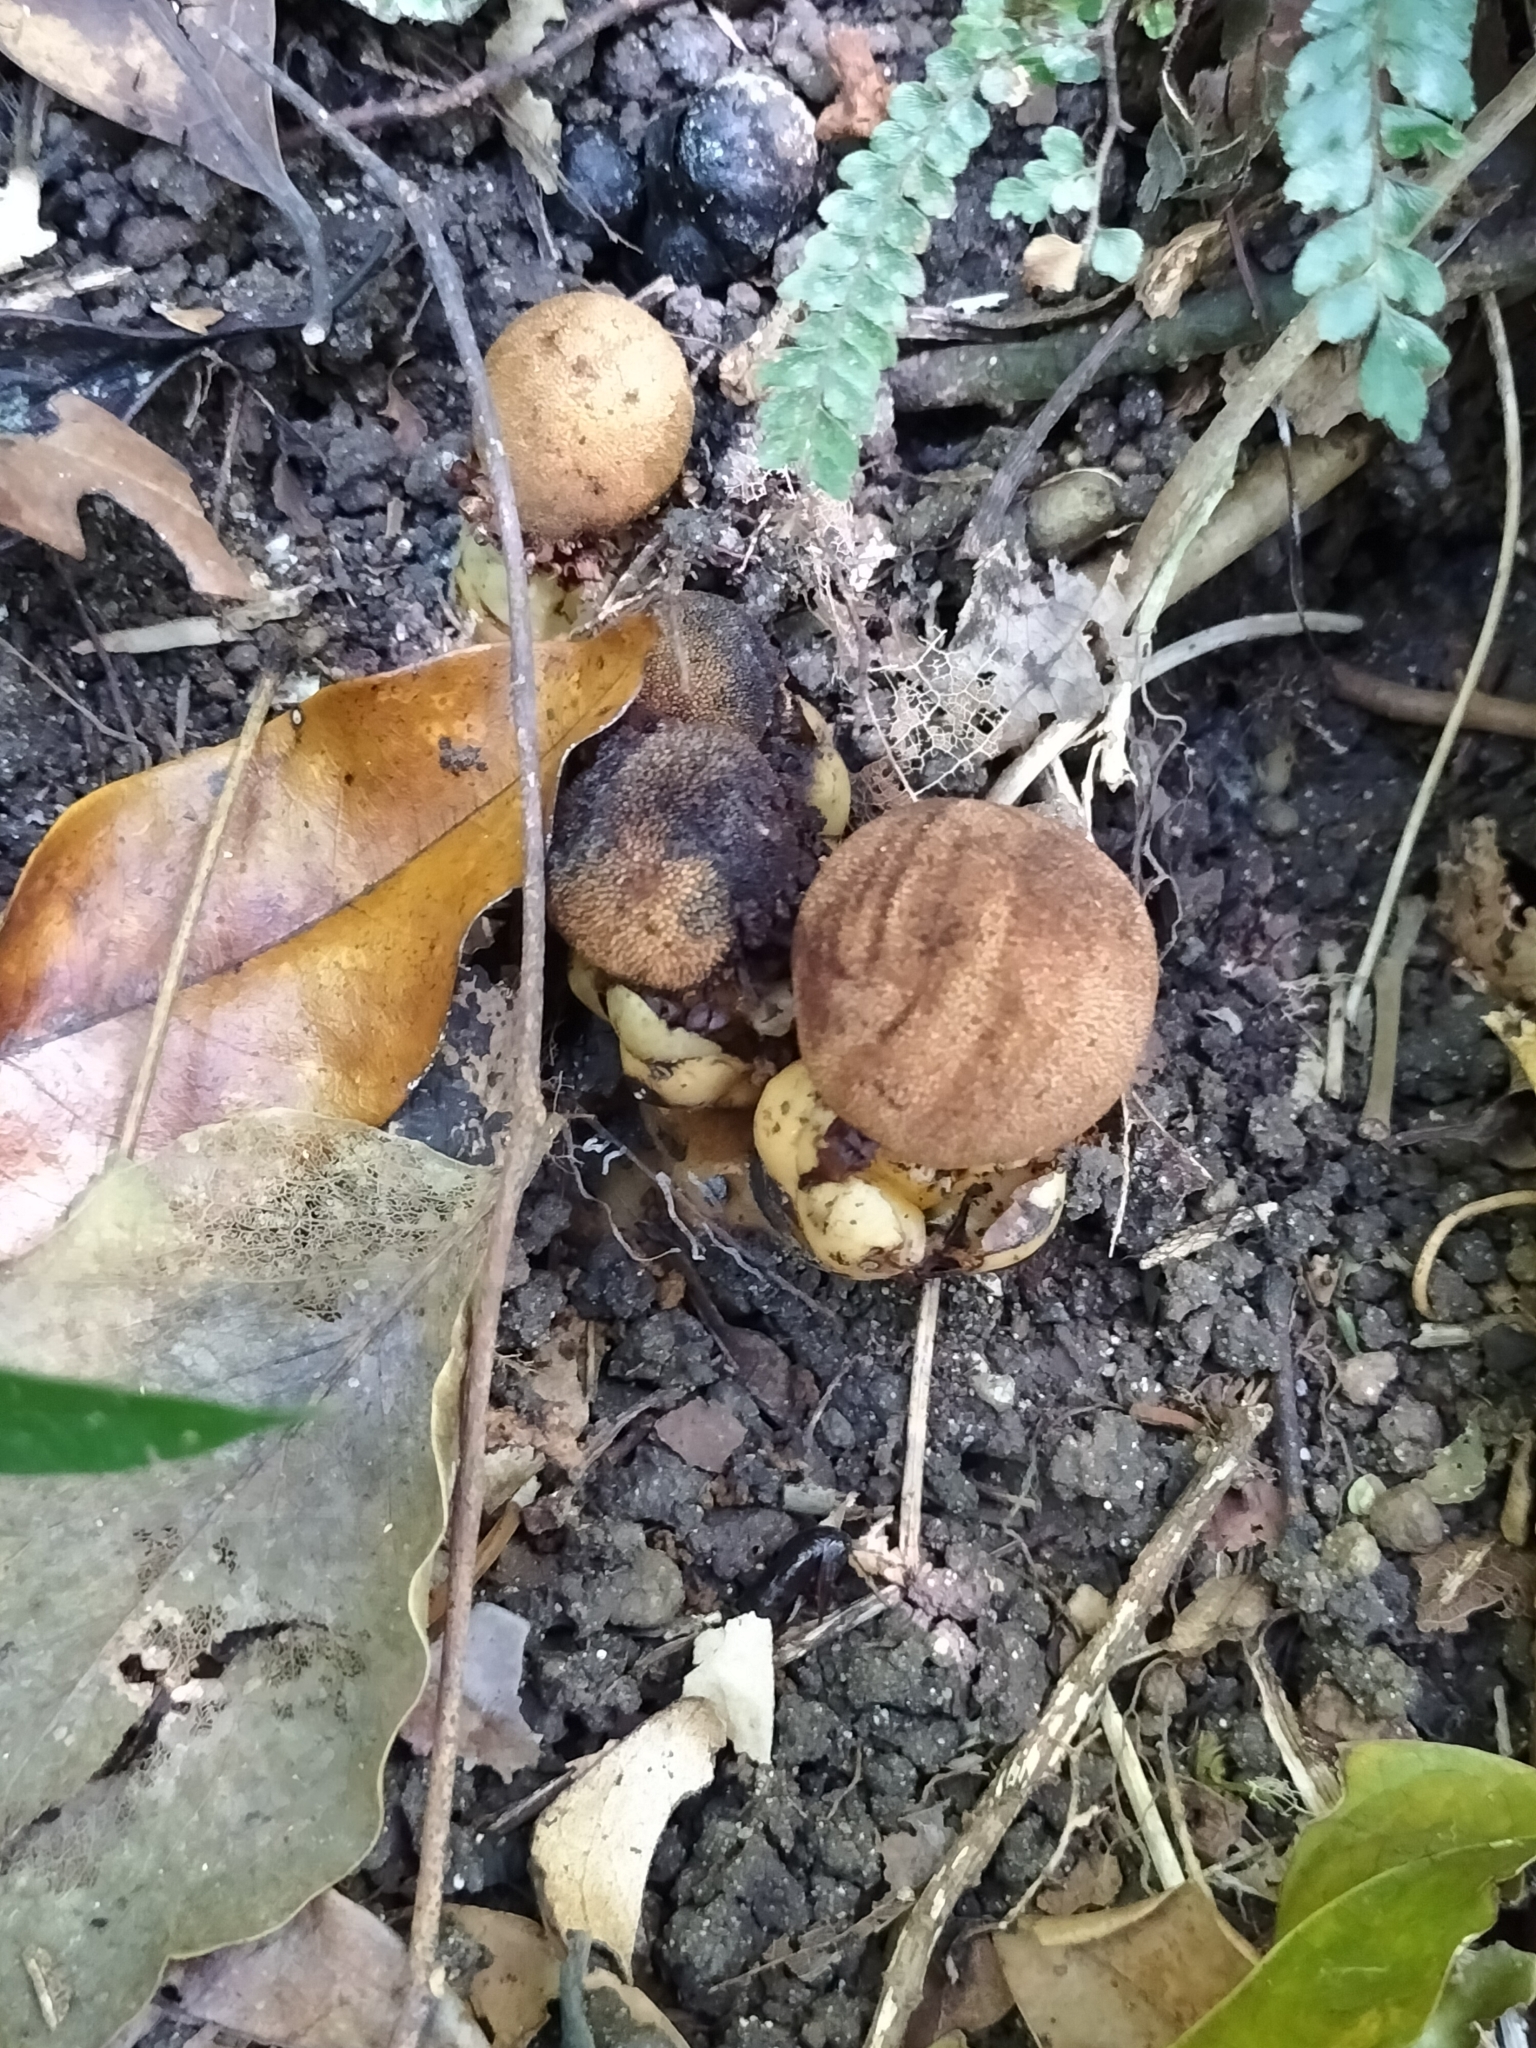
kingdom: Plantae
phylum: Tracheophyta
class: Magnoliopsida
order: Santalales
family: Balanophoraceae
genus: Balanophora
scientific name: Balanophora fungosa
